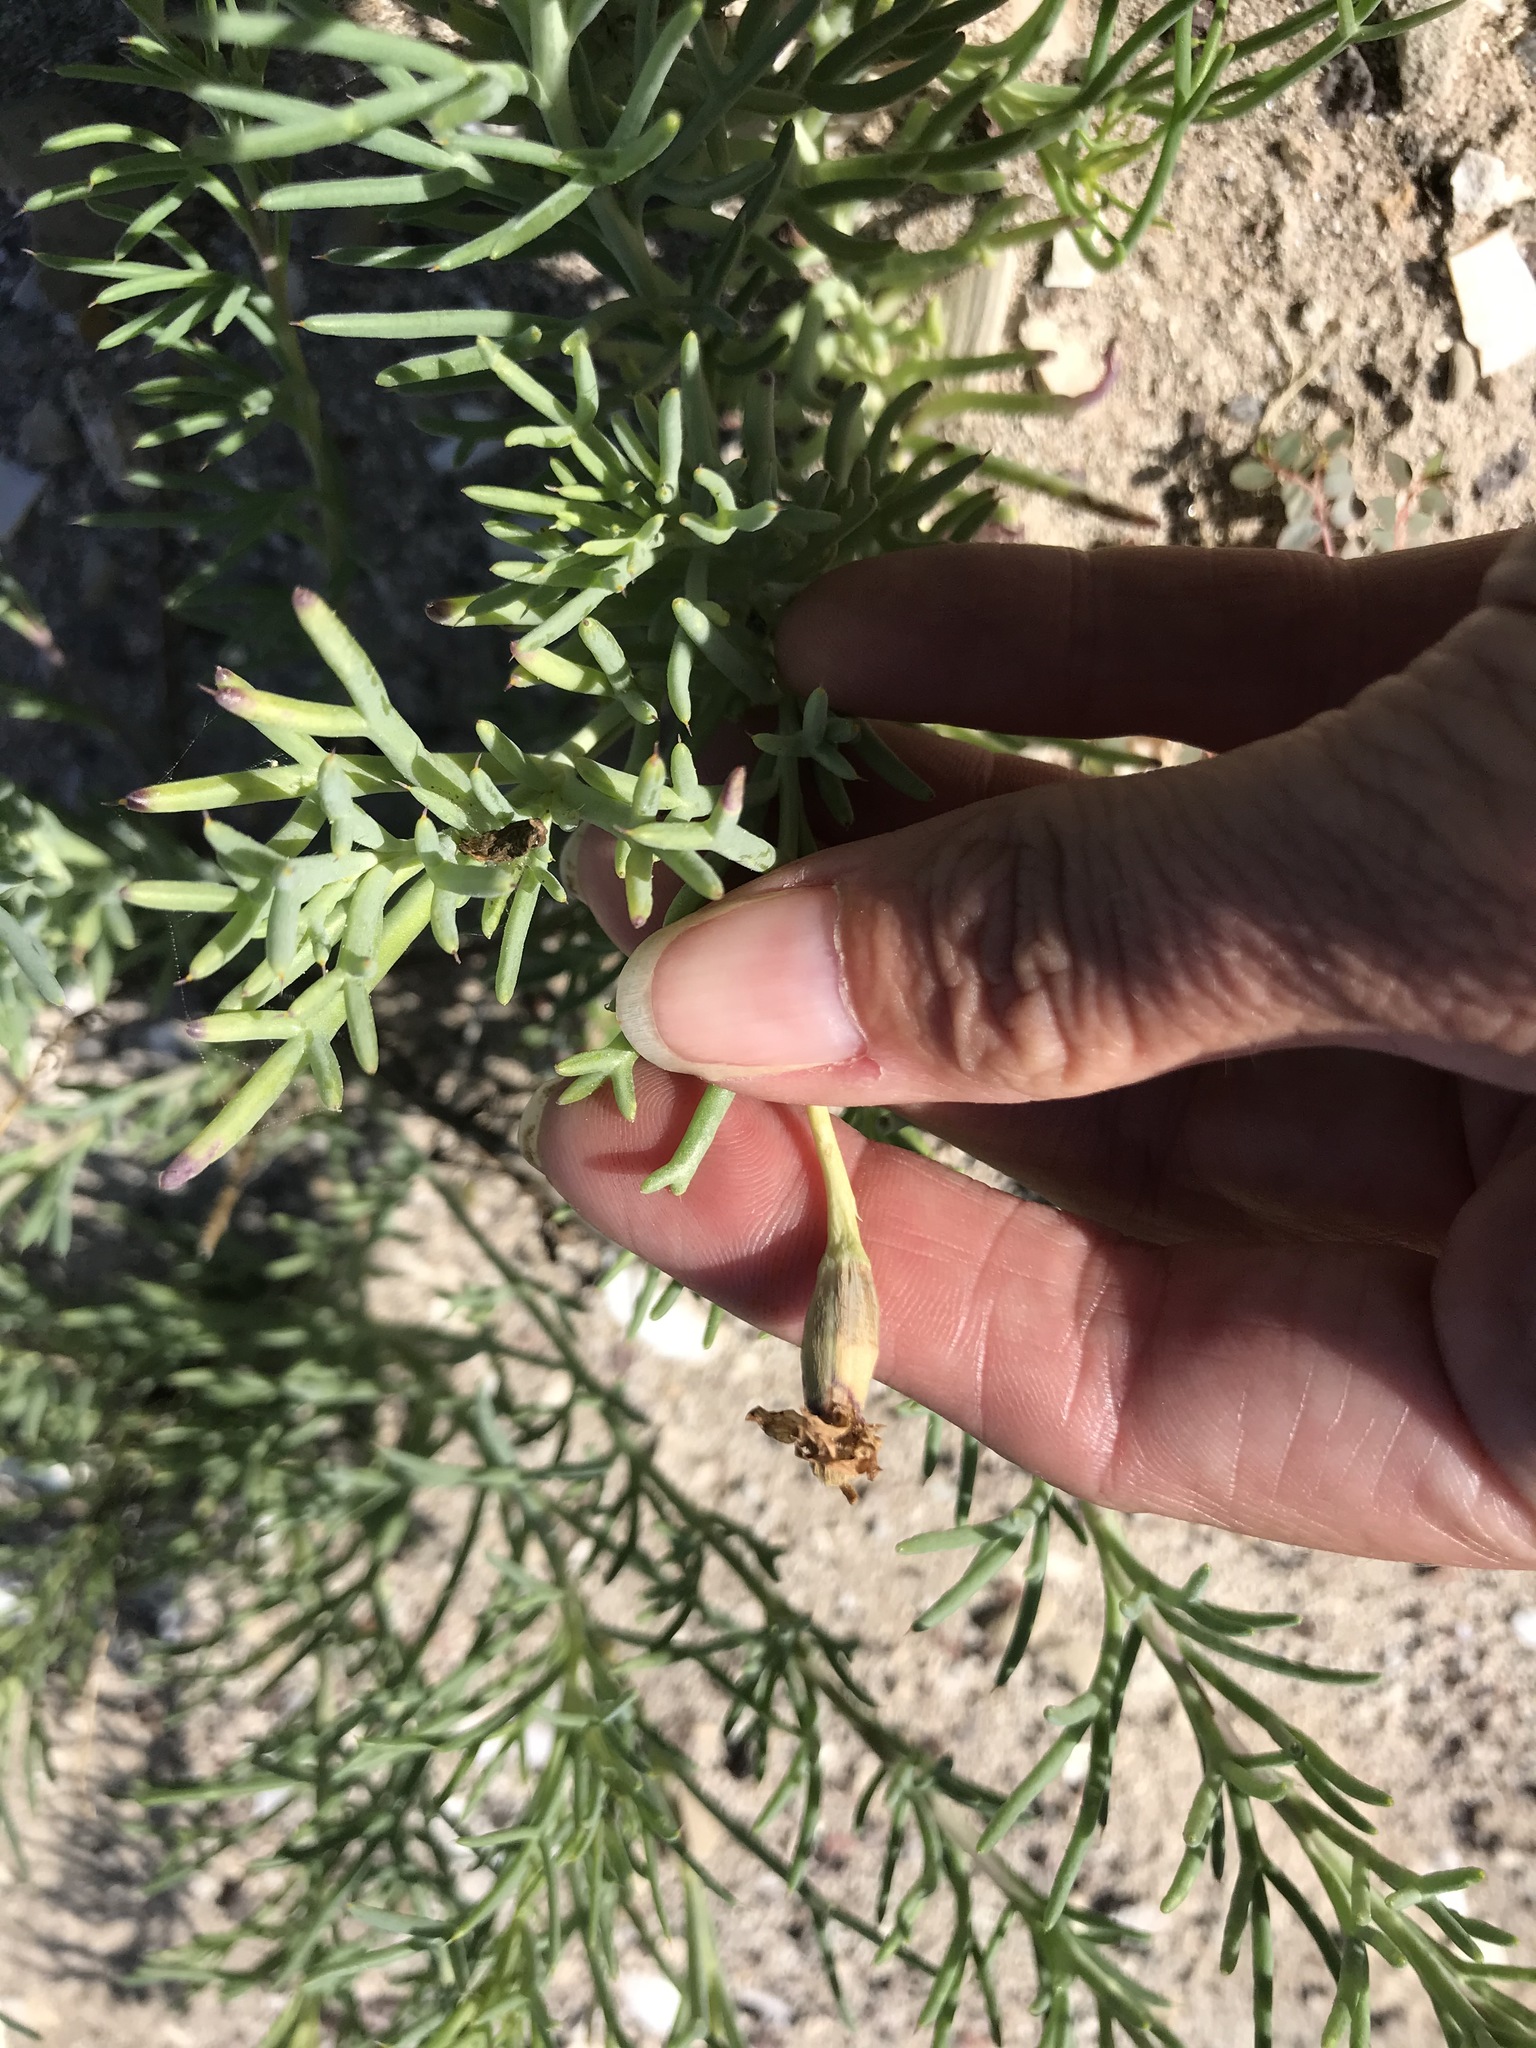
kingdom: Plantae
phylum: Tracheophyta
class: Magnoliopsida
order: Asterales
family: Asteraceae
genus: Nicolletia
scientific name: Nicolletia trifida
